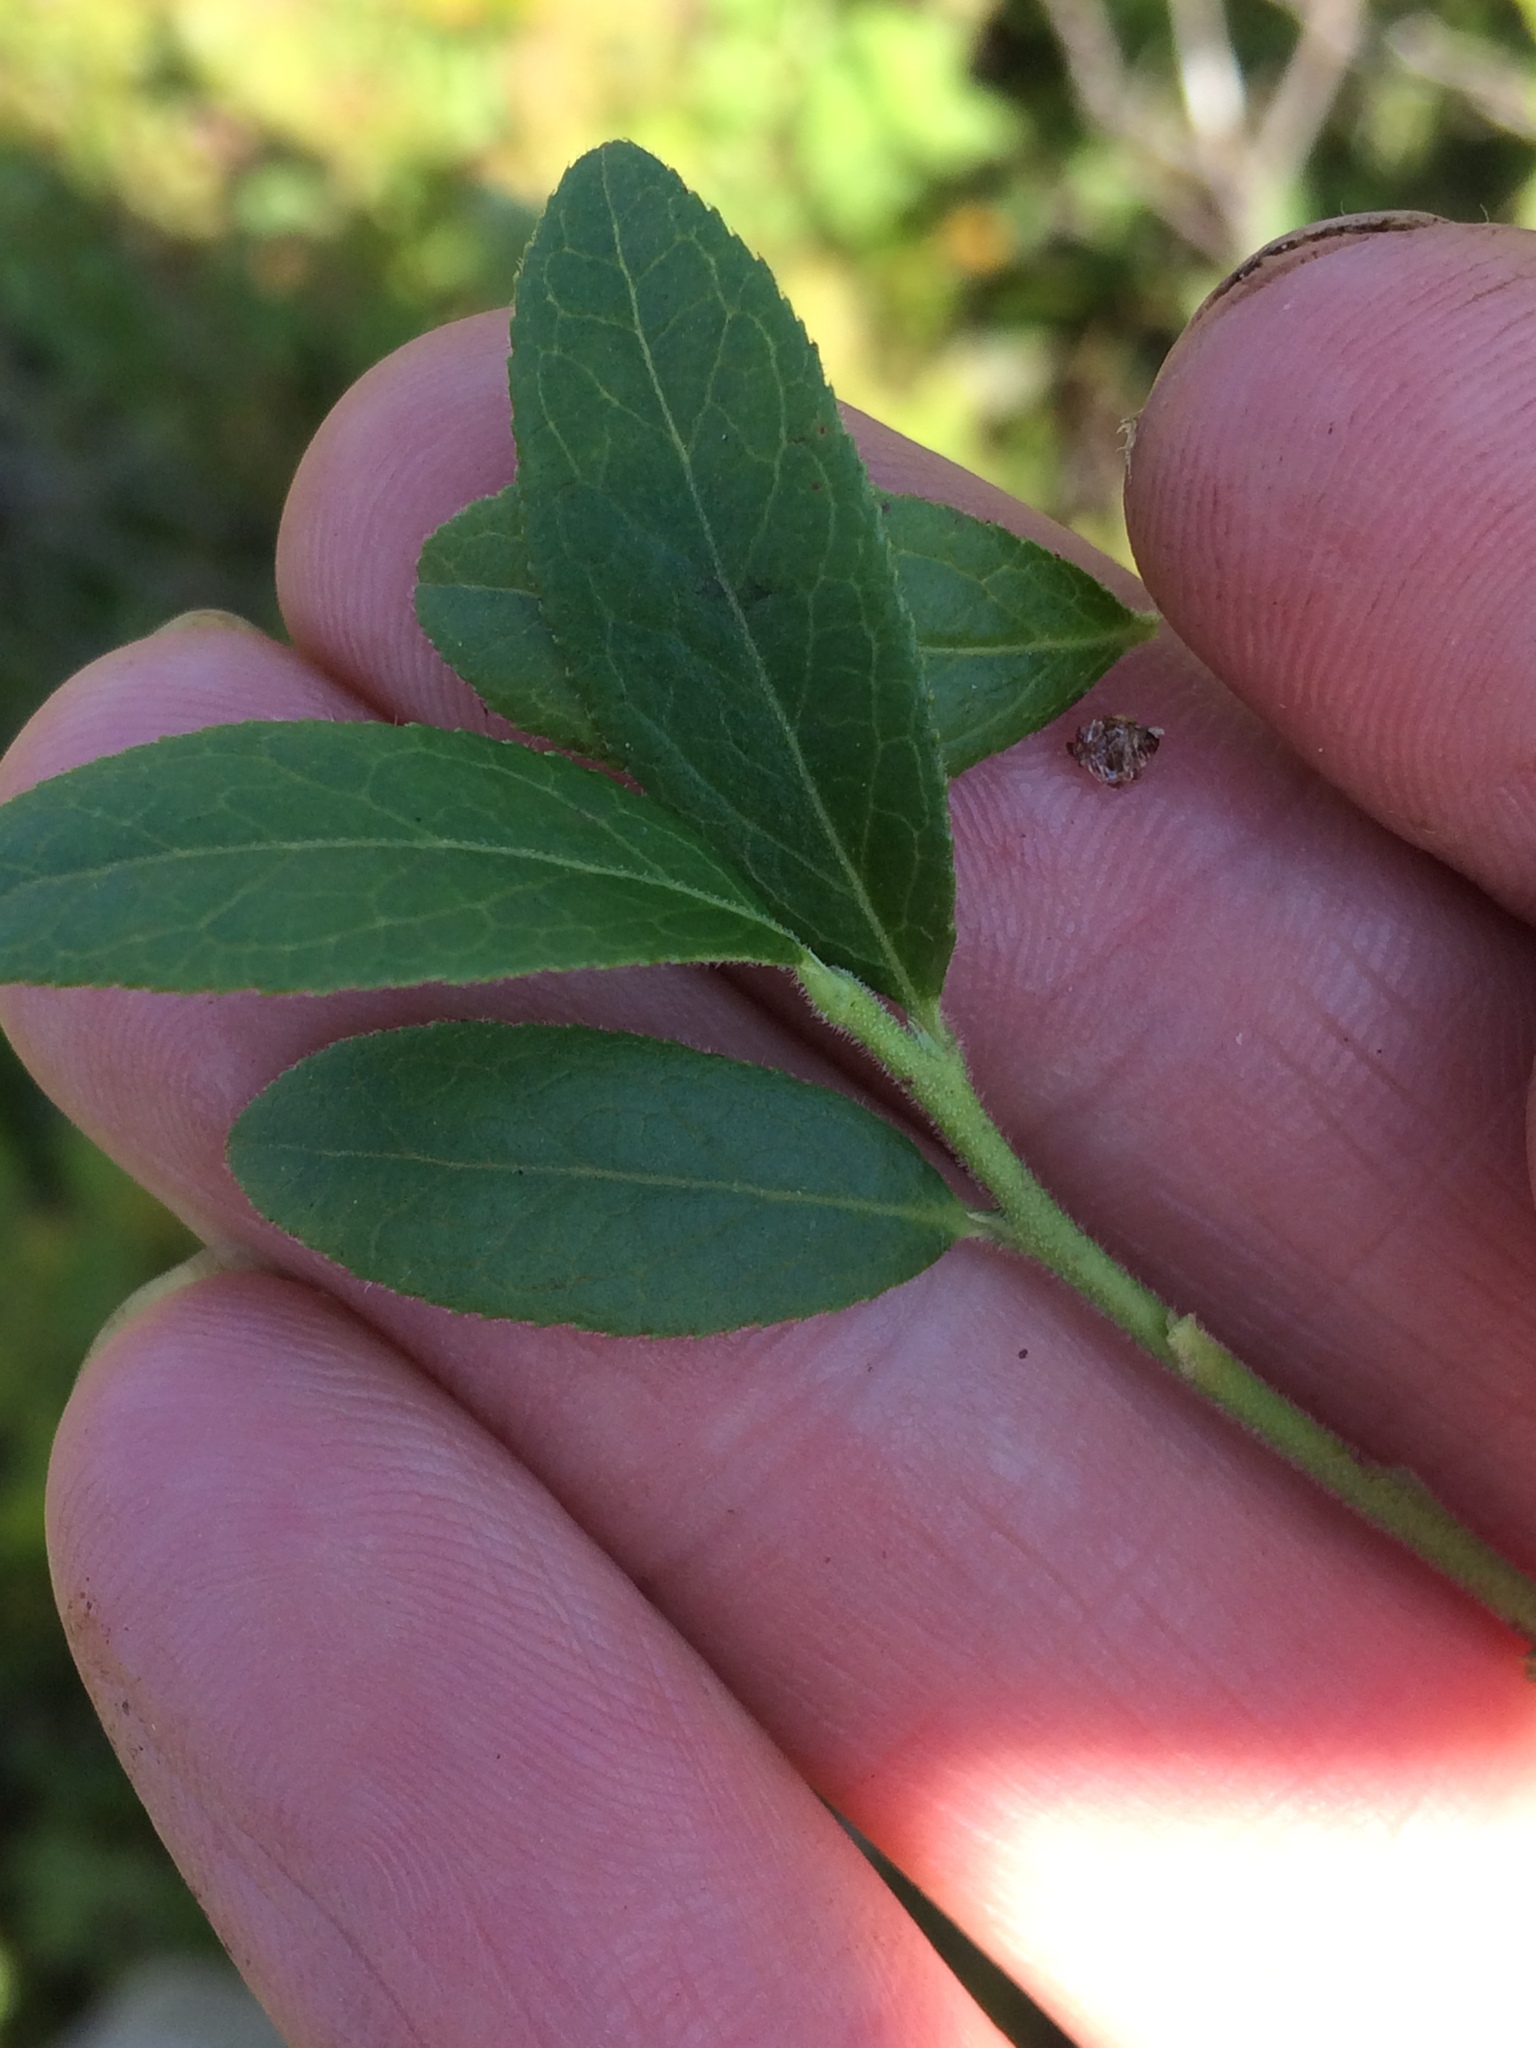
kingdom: Plantae
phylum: Tracheophyta
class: Magnoliopsida
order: Ericales
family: Ericaceae
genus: Vaccinium
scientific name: Vaccinium myrtilloides
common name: Canada blueberry
